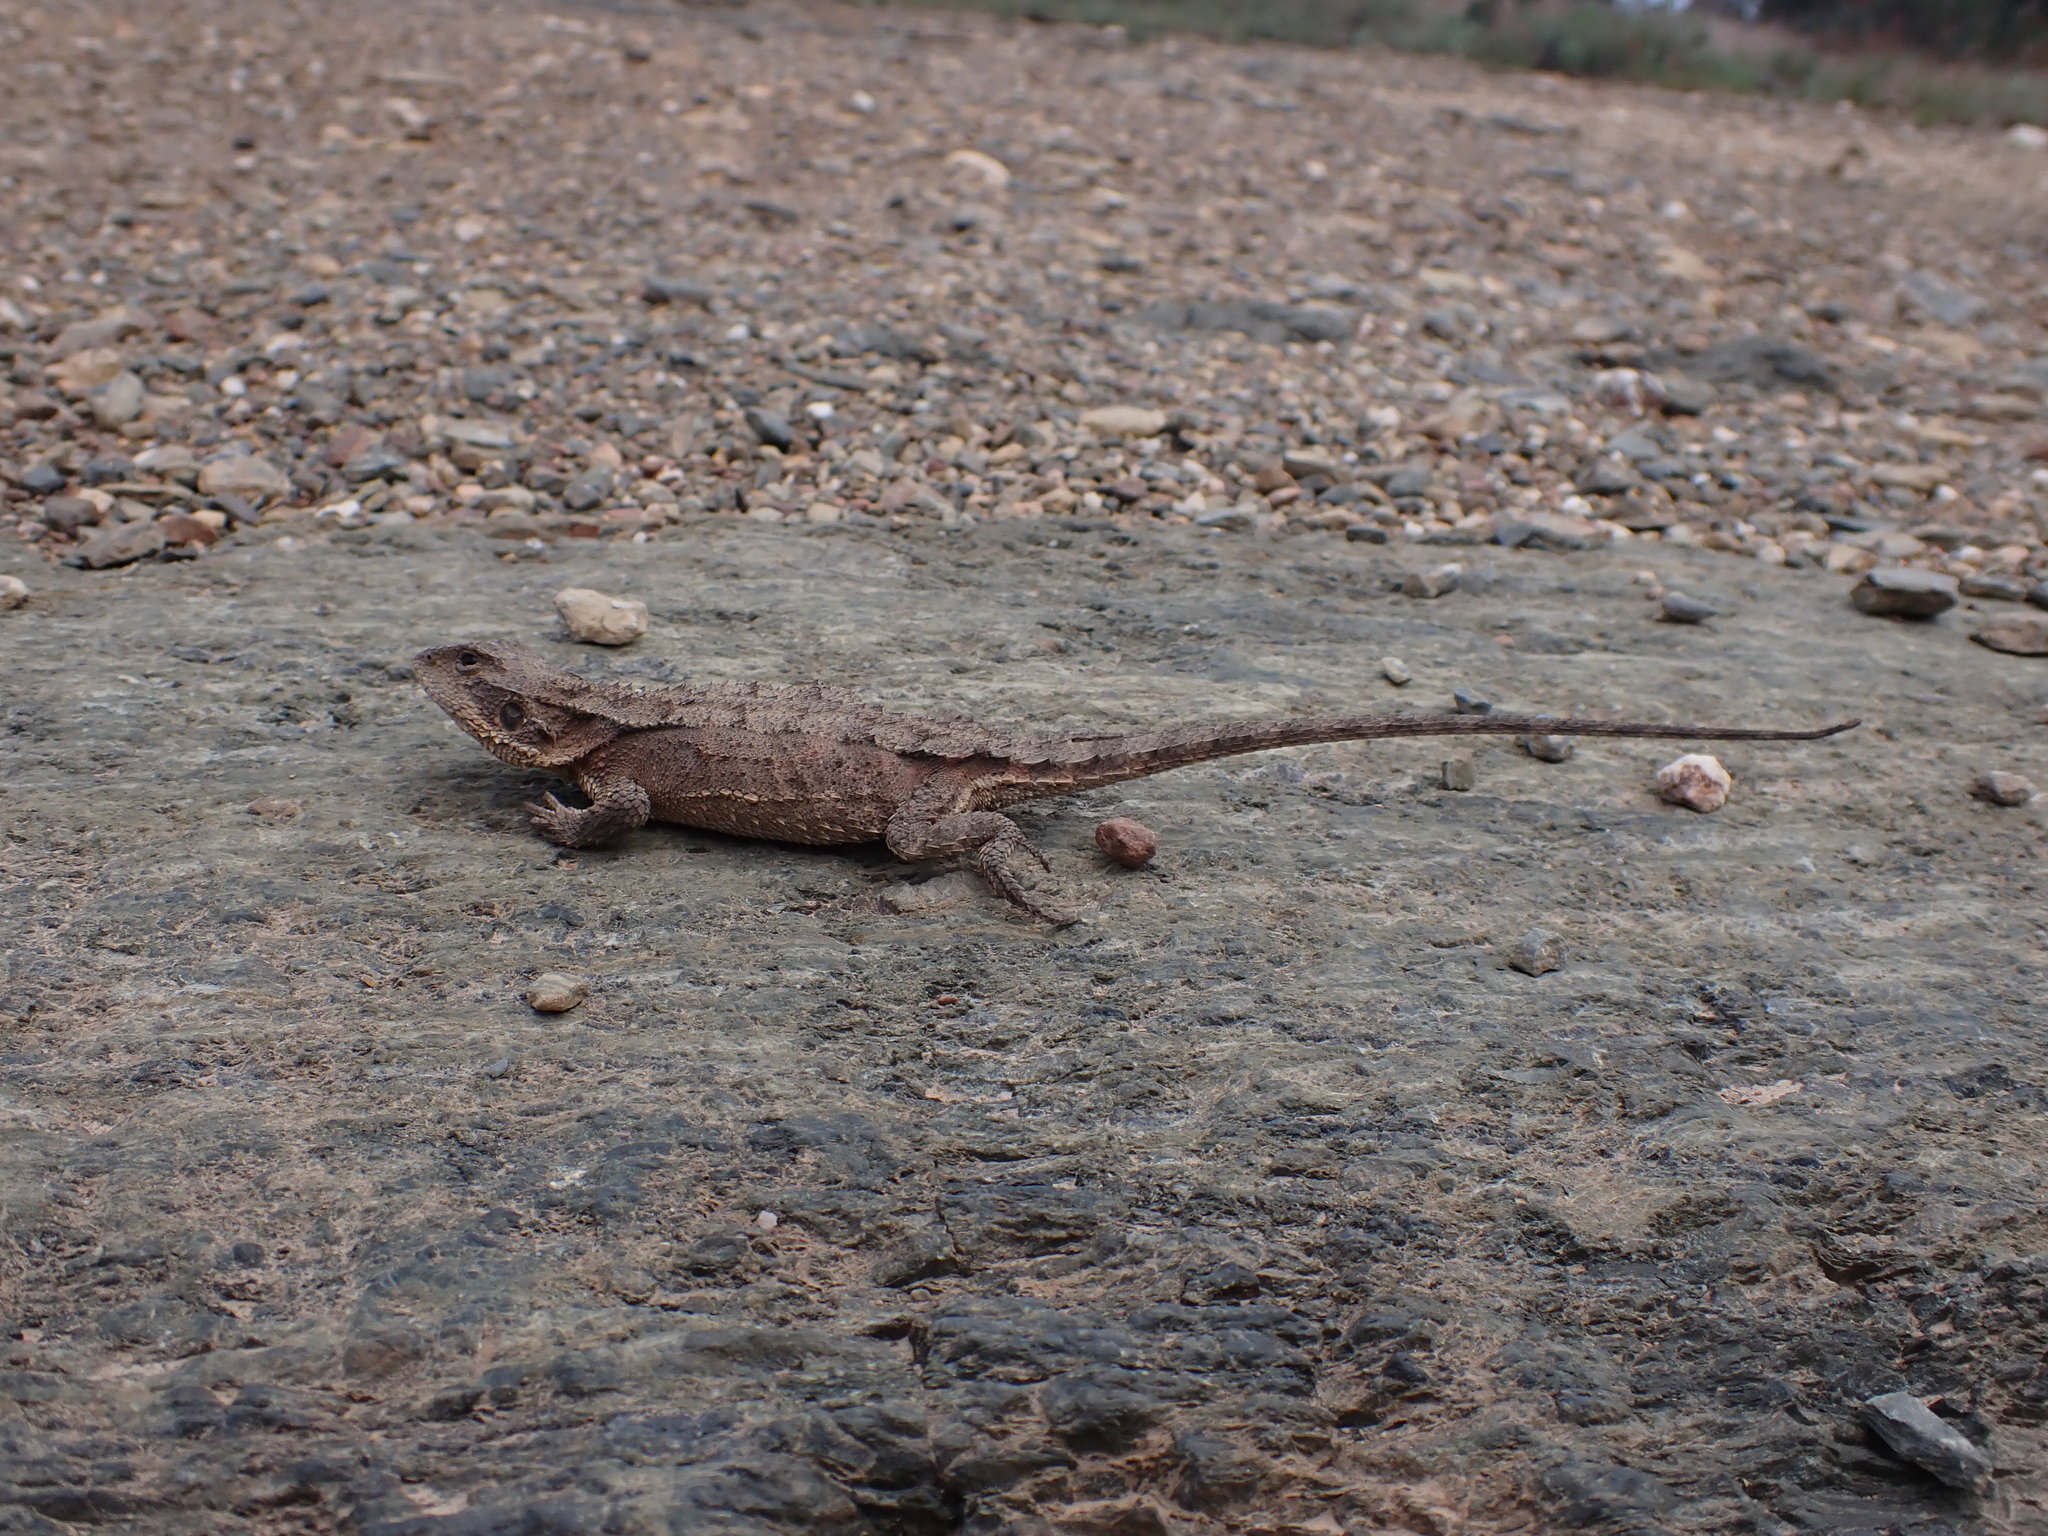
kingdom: Animalia
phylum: Chordata
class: Squamata
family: Agamidae
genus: Rankinia
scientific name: Rankinia diemensis
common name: Mountain dragon
